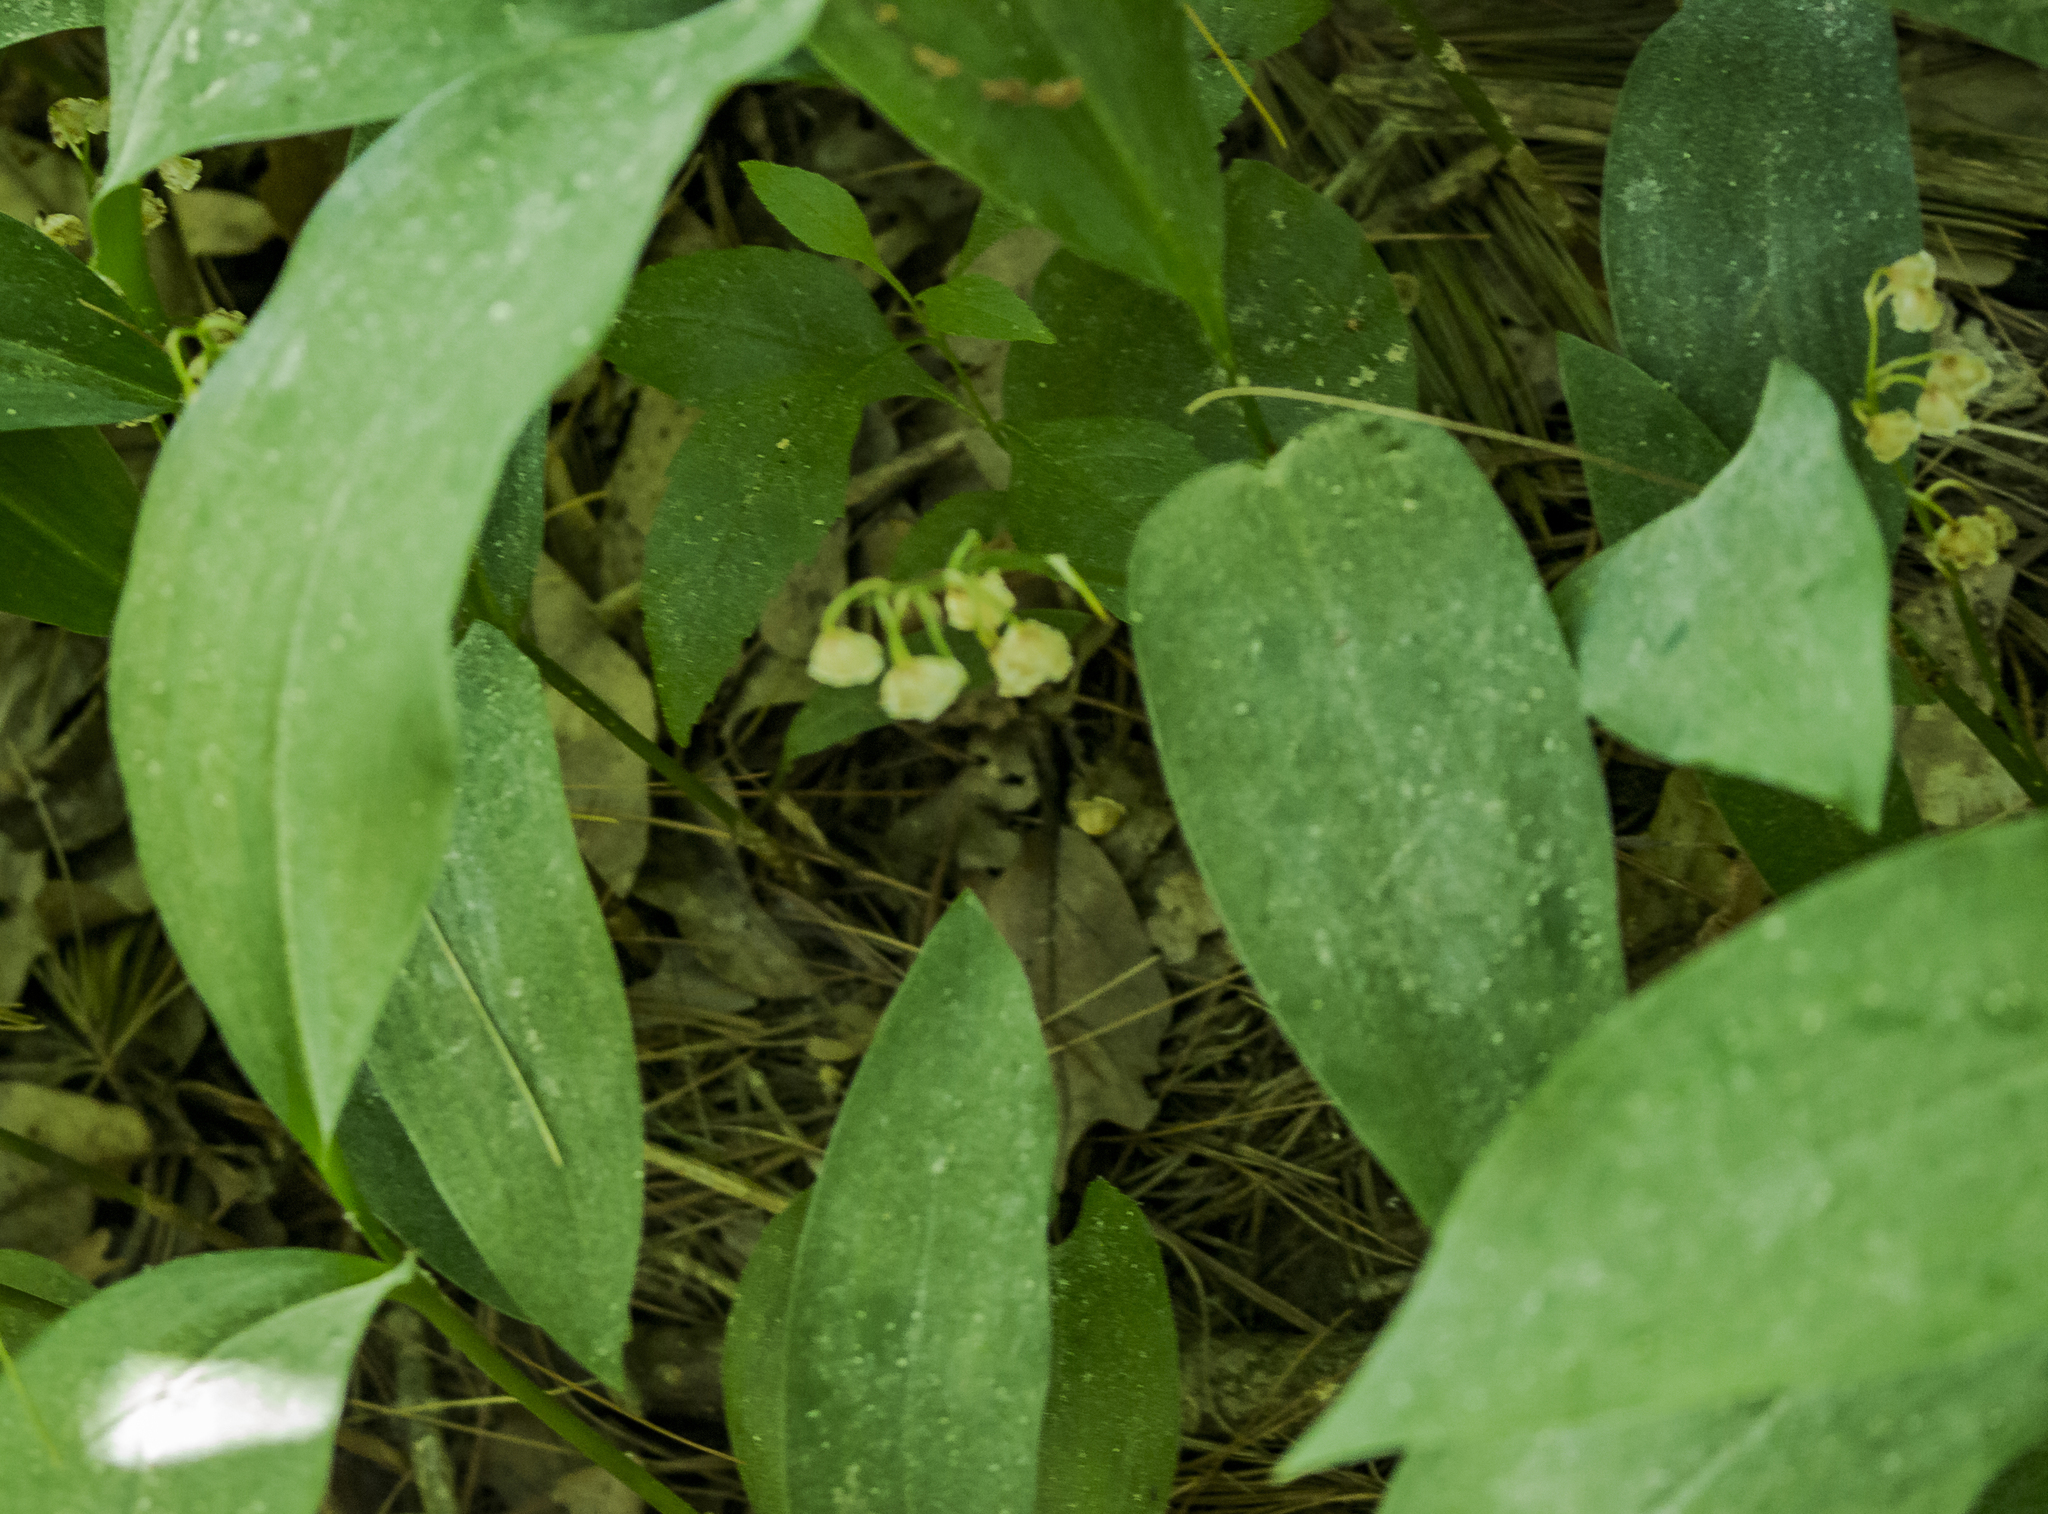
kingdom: Plantae
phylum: Tracheophyta
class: Liliopsida
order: Asparagales
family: Asparagaceae
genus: Convallaria
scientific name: Convallaria majalis
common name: Lily-of-the-valley
